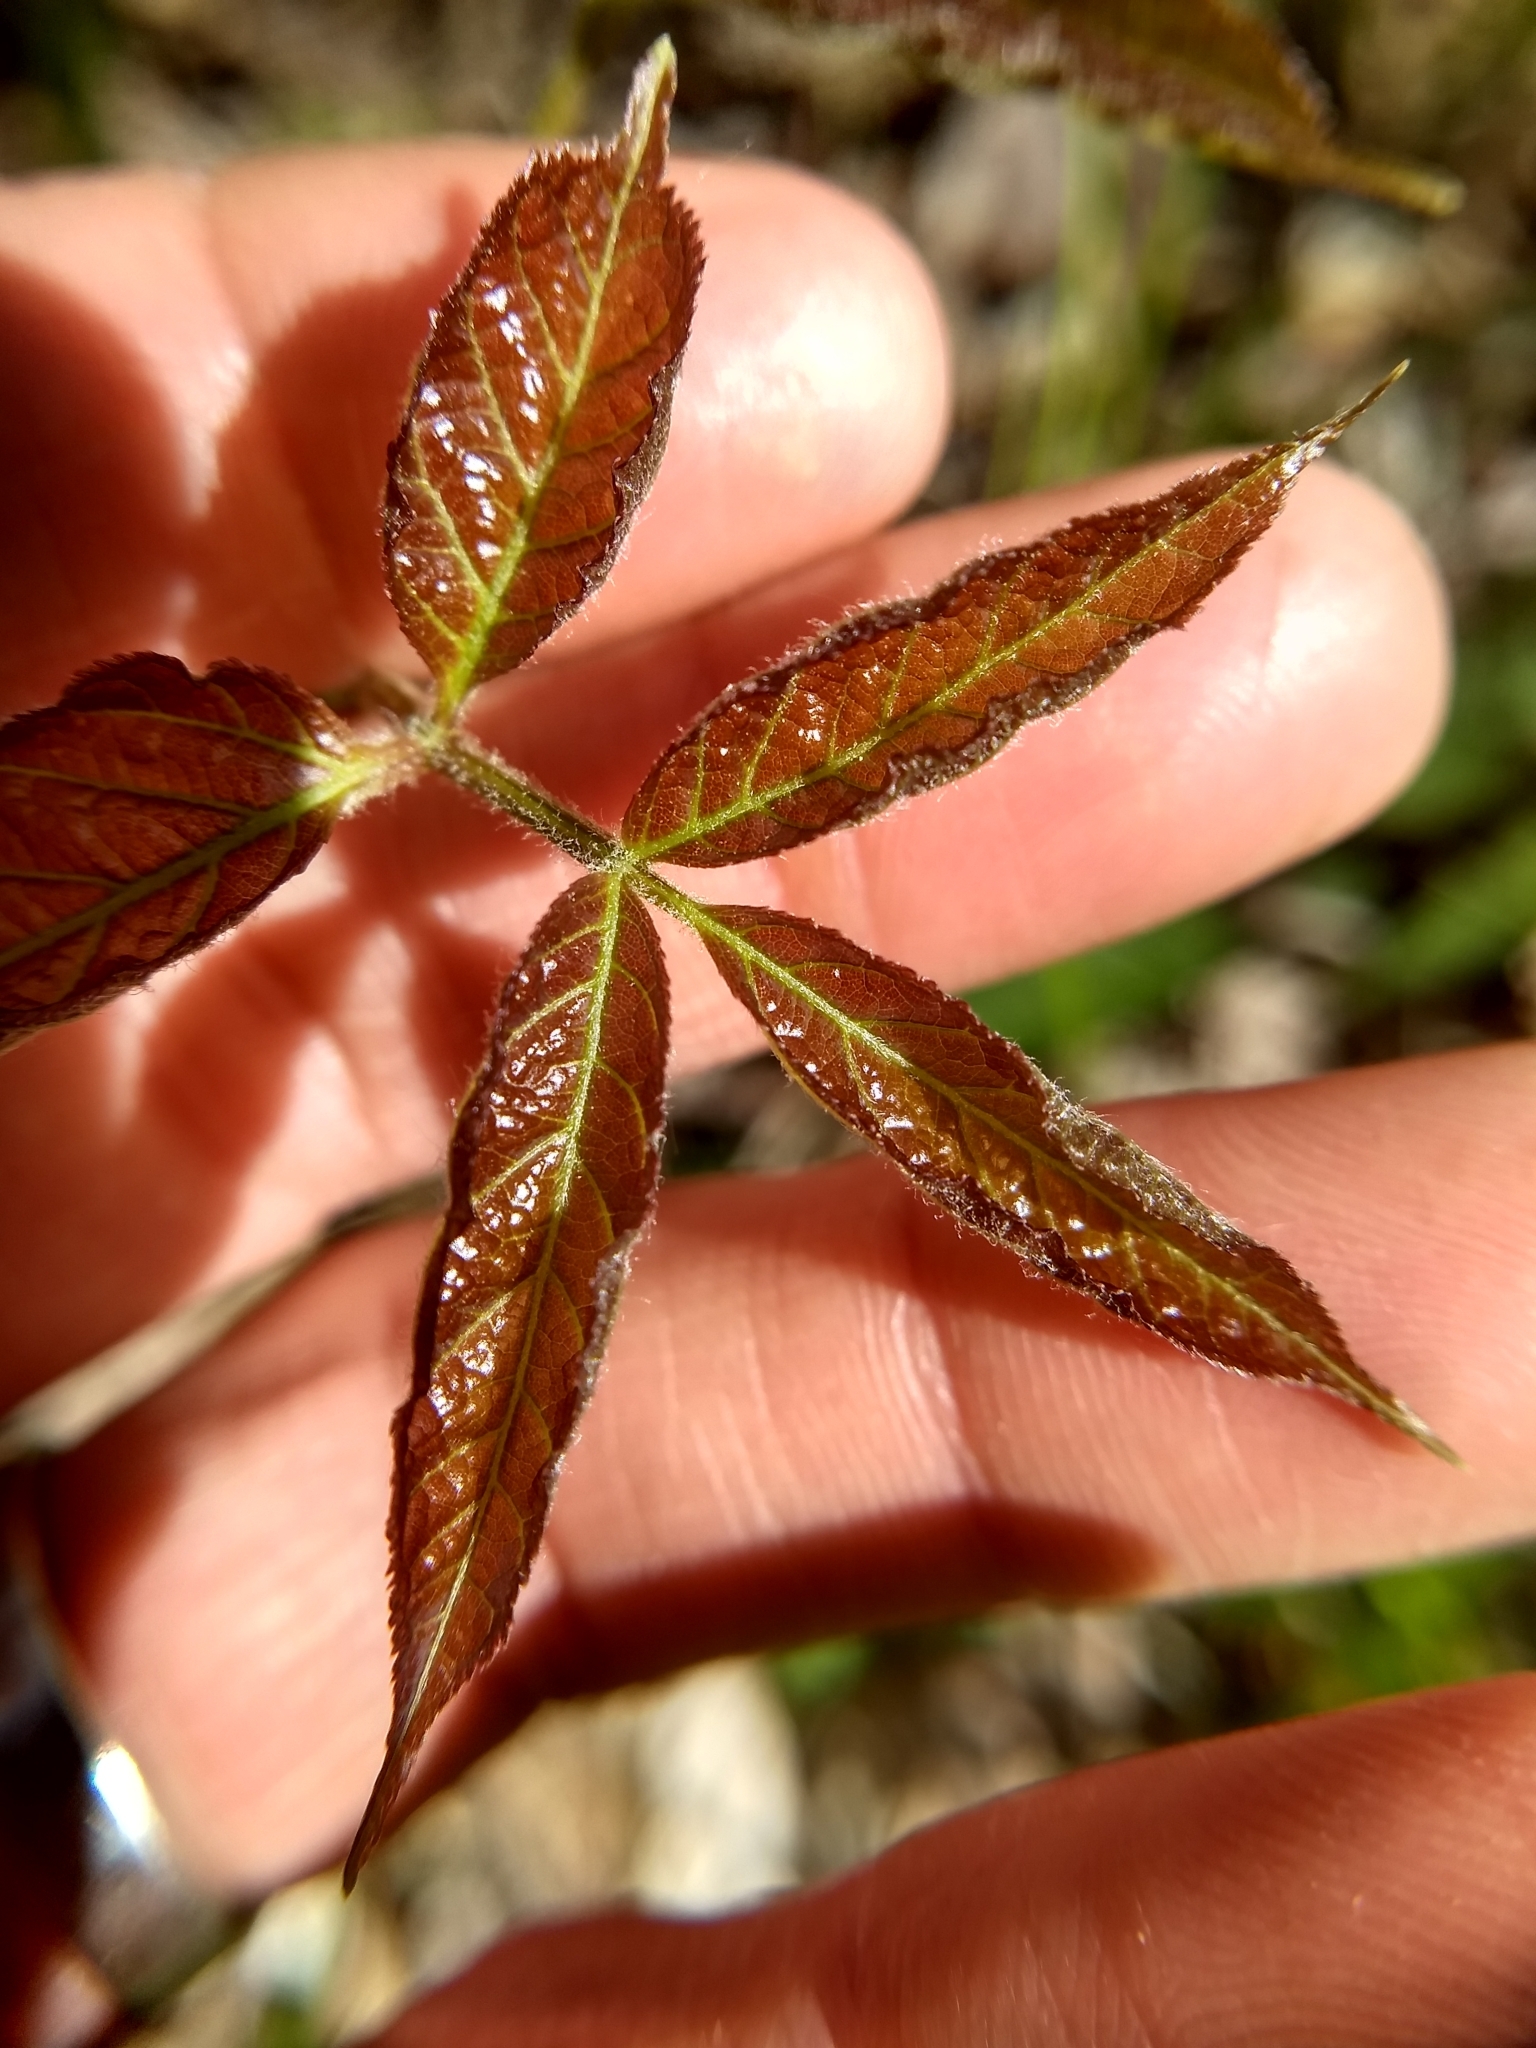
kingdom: Plantae
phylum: Tracheophyta
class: Magnoliopsida
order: Apiales
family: Araliaceae
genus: Aralia
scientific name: Aralia nudicaulis
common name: Wild sarsaparilla
